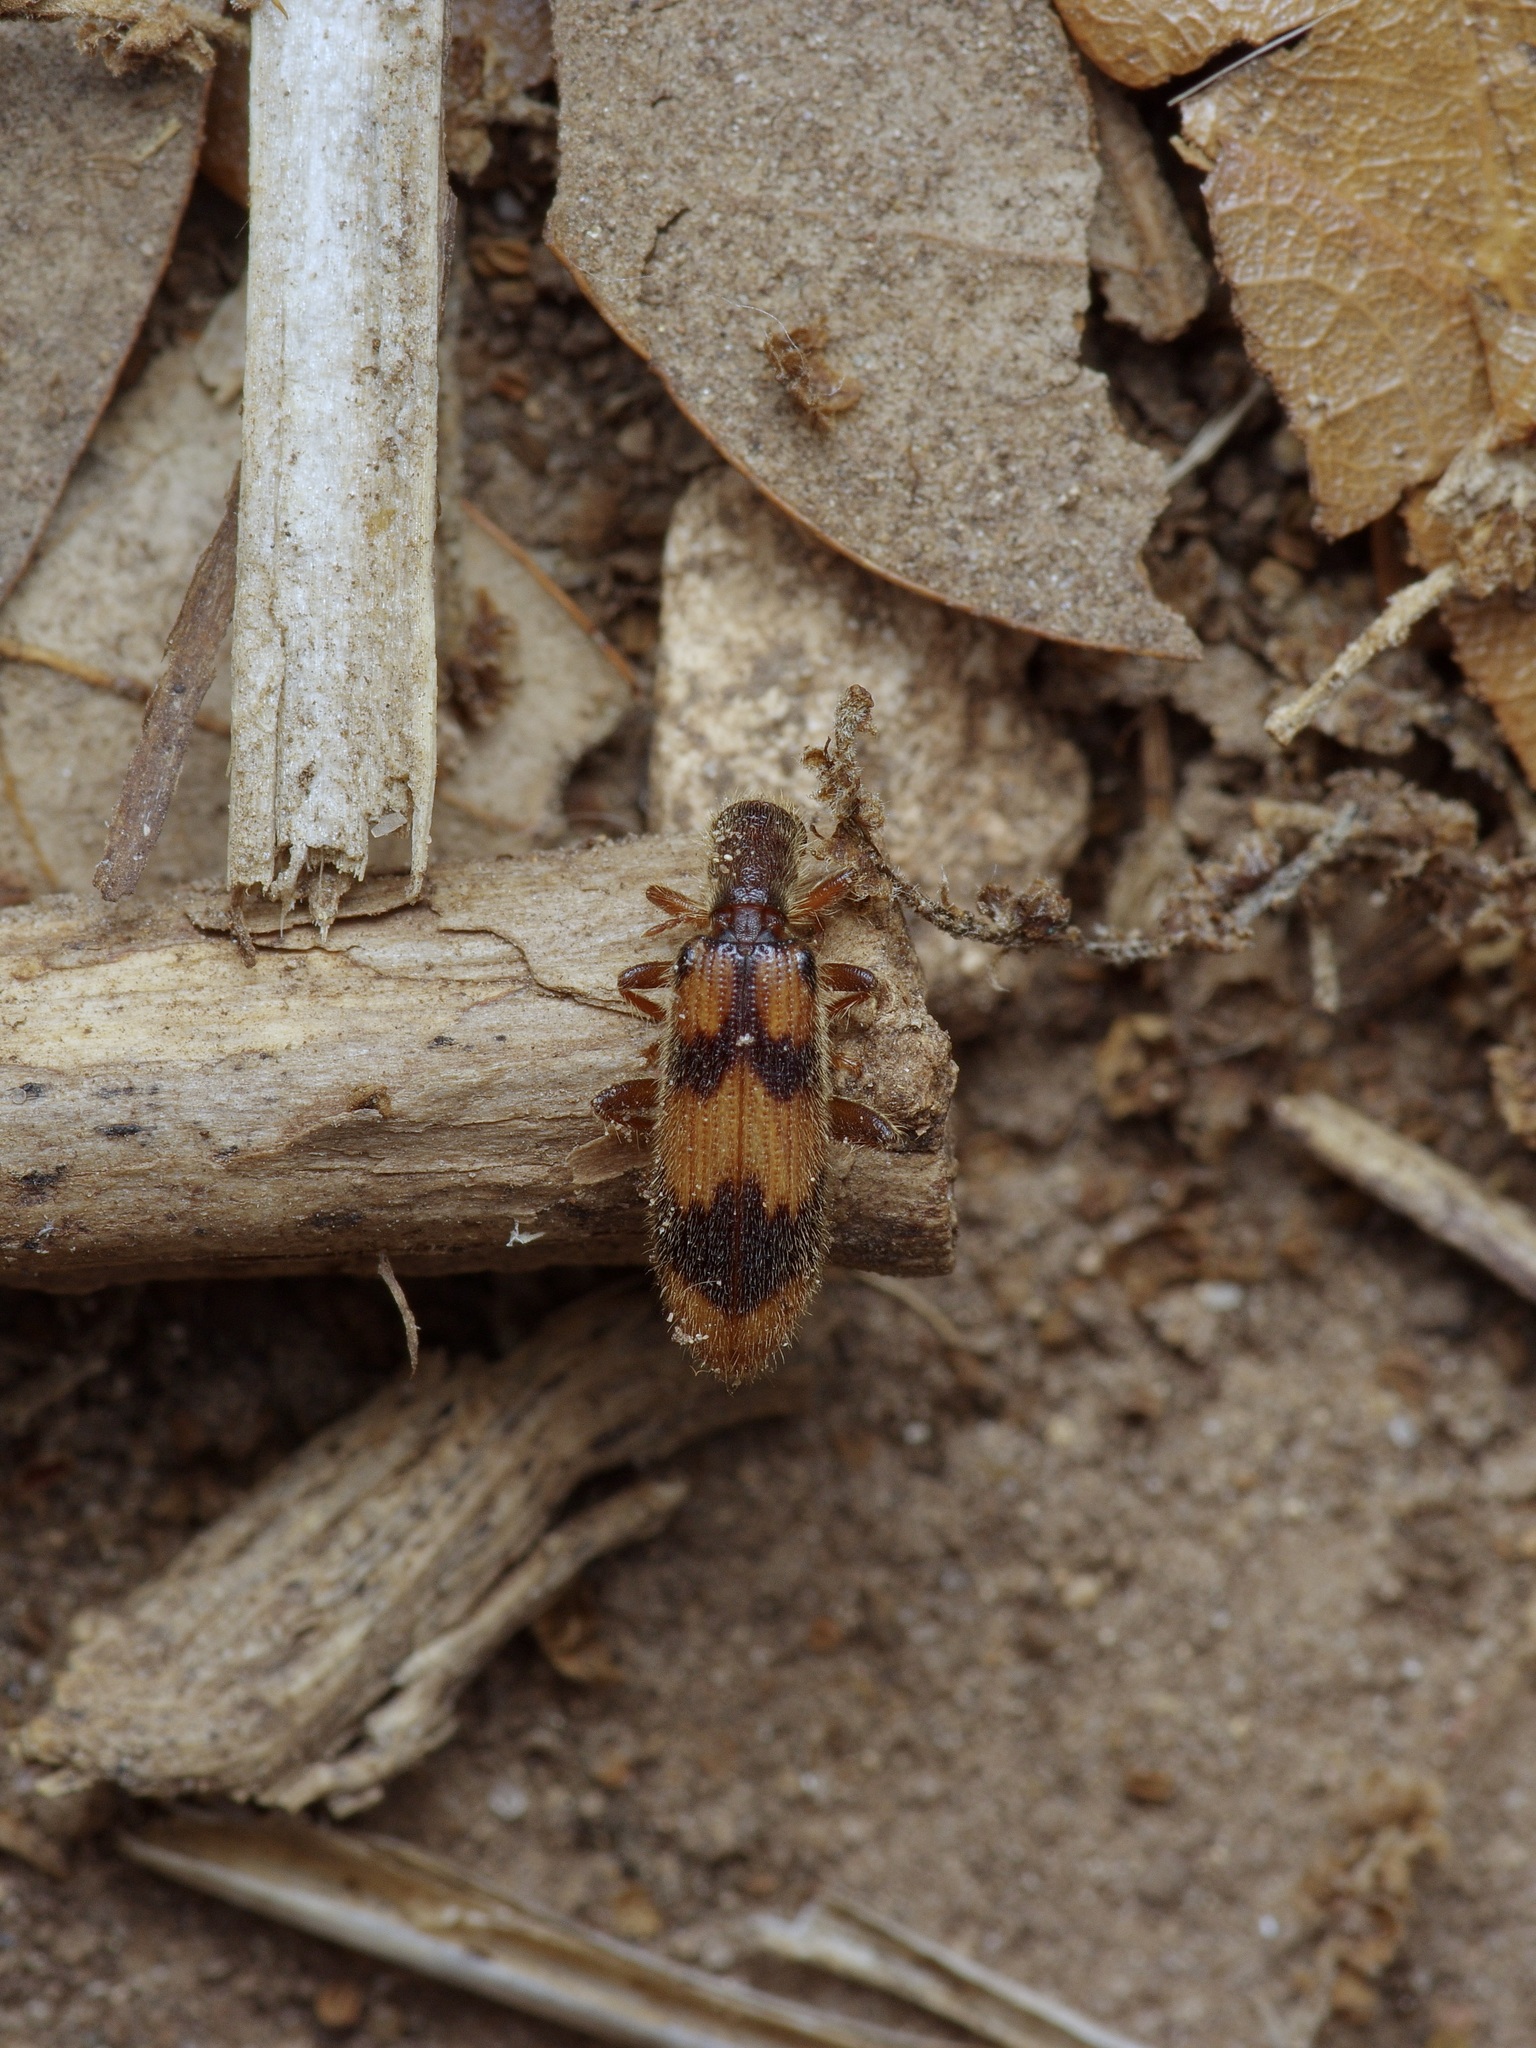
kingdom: Animalia
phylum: Arthropoda
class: Insecta
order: Coleoptera
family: Cleridae
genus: Cymatodera
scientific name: Cymatodera sirpata
